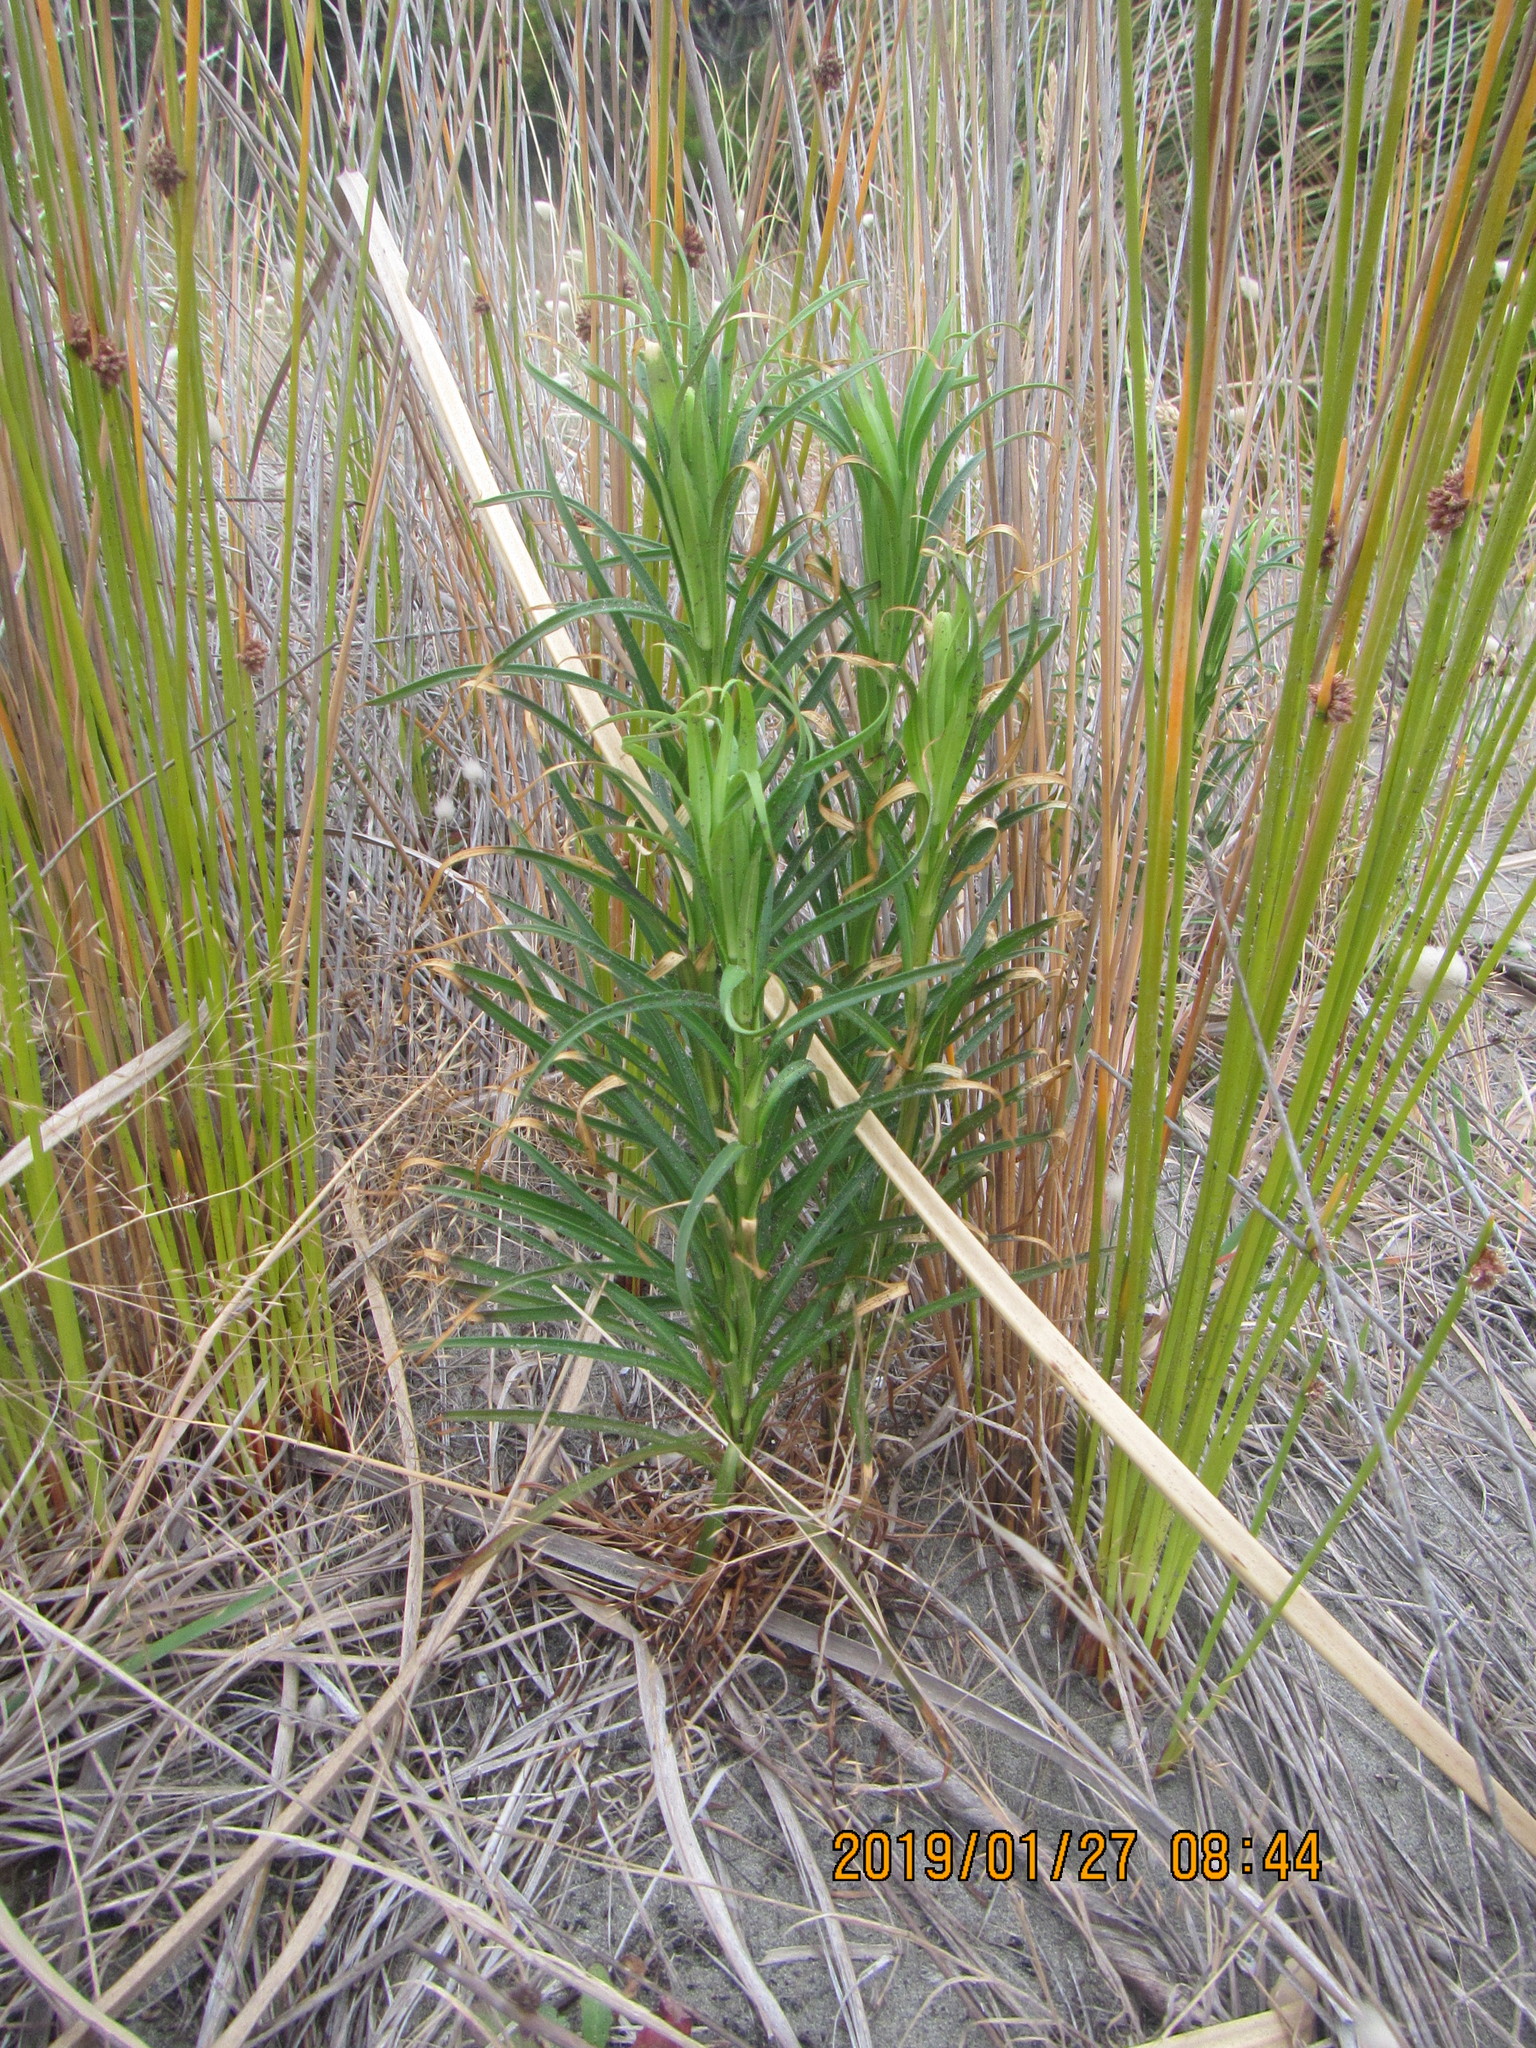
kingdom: Plantae
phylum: Tracheophyta
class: Liliopsida
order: Liliales
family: Liliaceae
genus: Lilium
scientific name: Lilium formosanum
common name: Formosa lily
